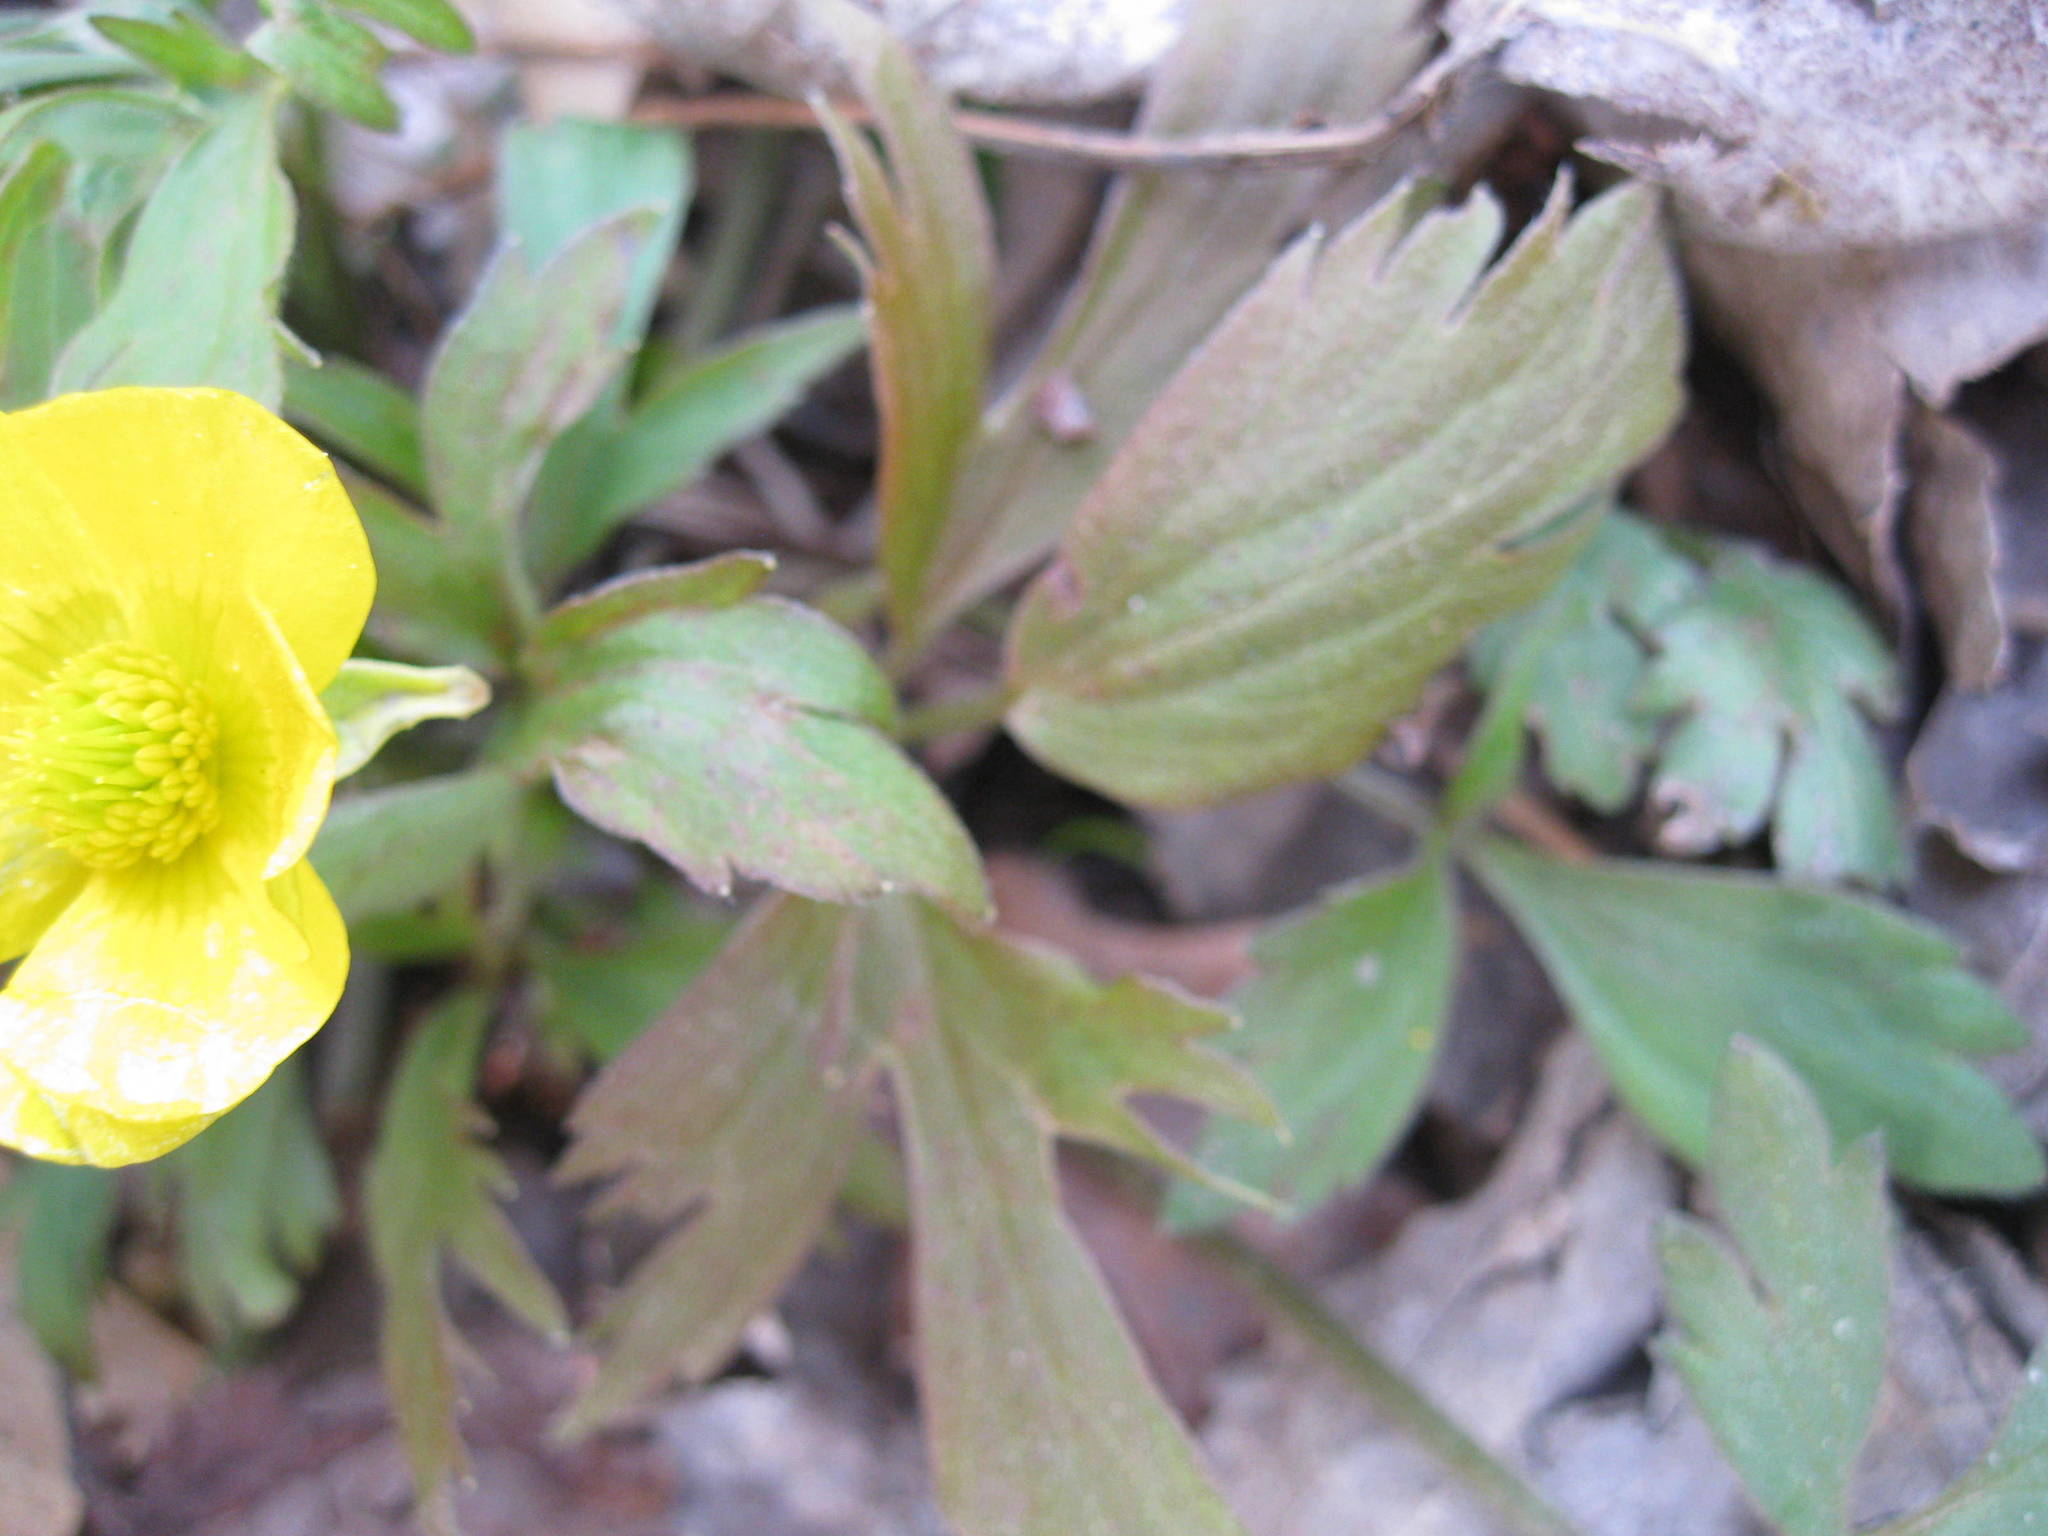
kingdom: Plantae
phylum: Tracheophyta
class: Magnoliopsida
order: Ranunculales
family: Ranunculaceae
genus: Ranunculus
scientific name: Ranunculus hispidus
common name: Bristly buttercup
